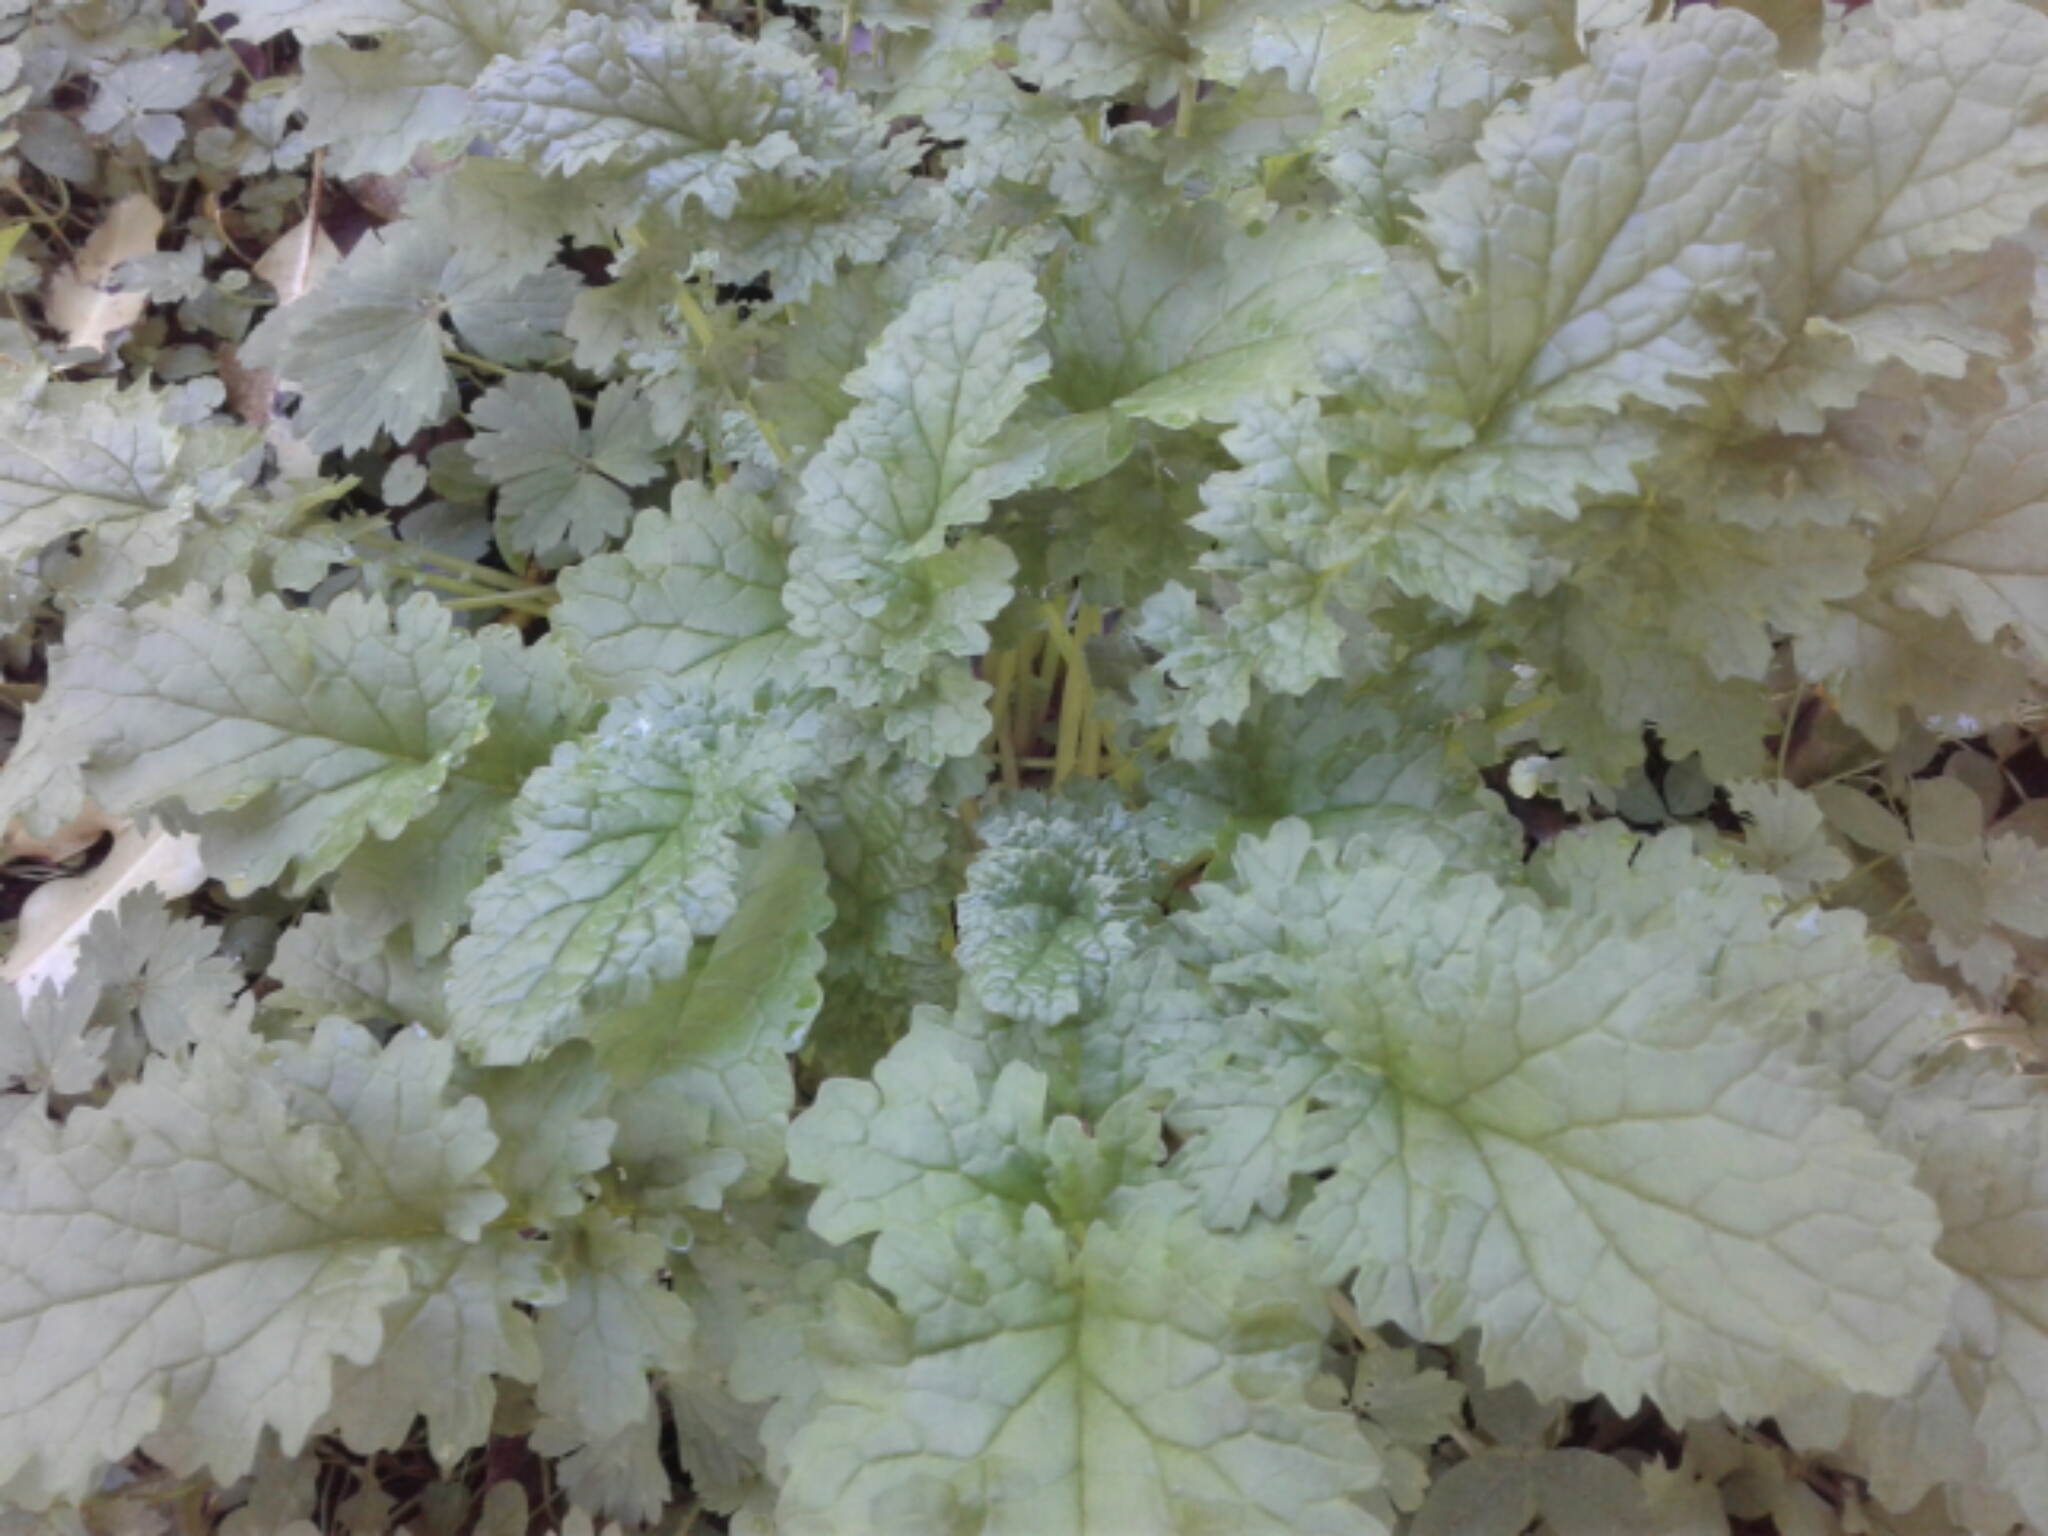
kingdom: Plantae
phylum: Tracheophyta
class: Magnoliopsida
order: Asterales
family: Asteraceae
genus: Jacobaea
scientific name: Jacobaea vulgaris
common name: Stinking willie
